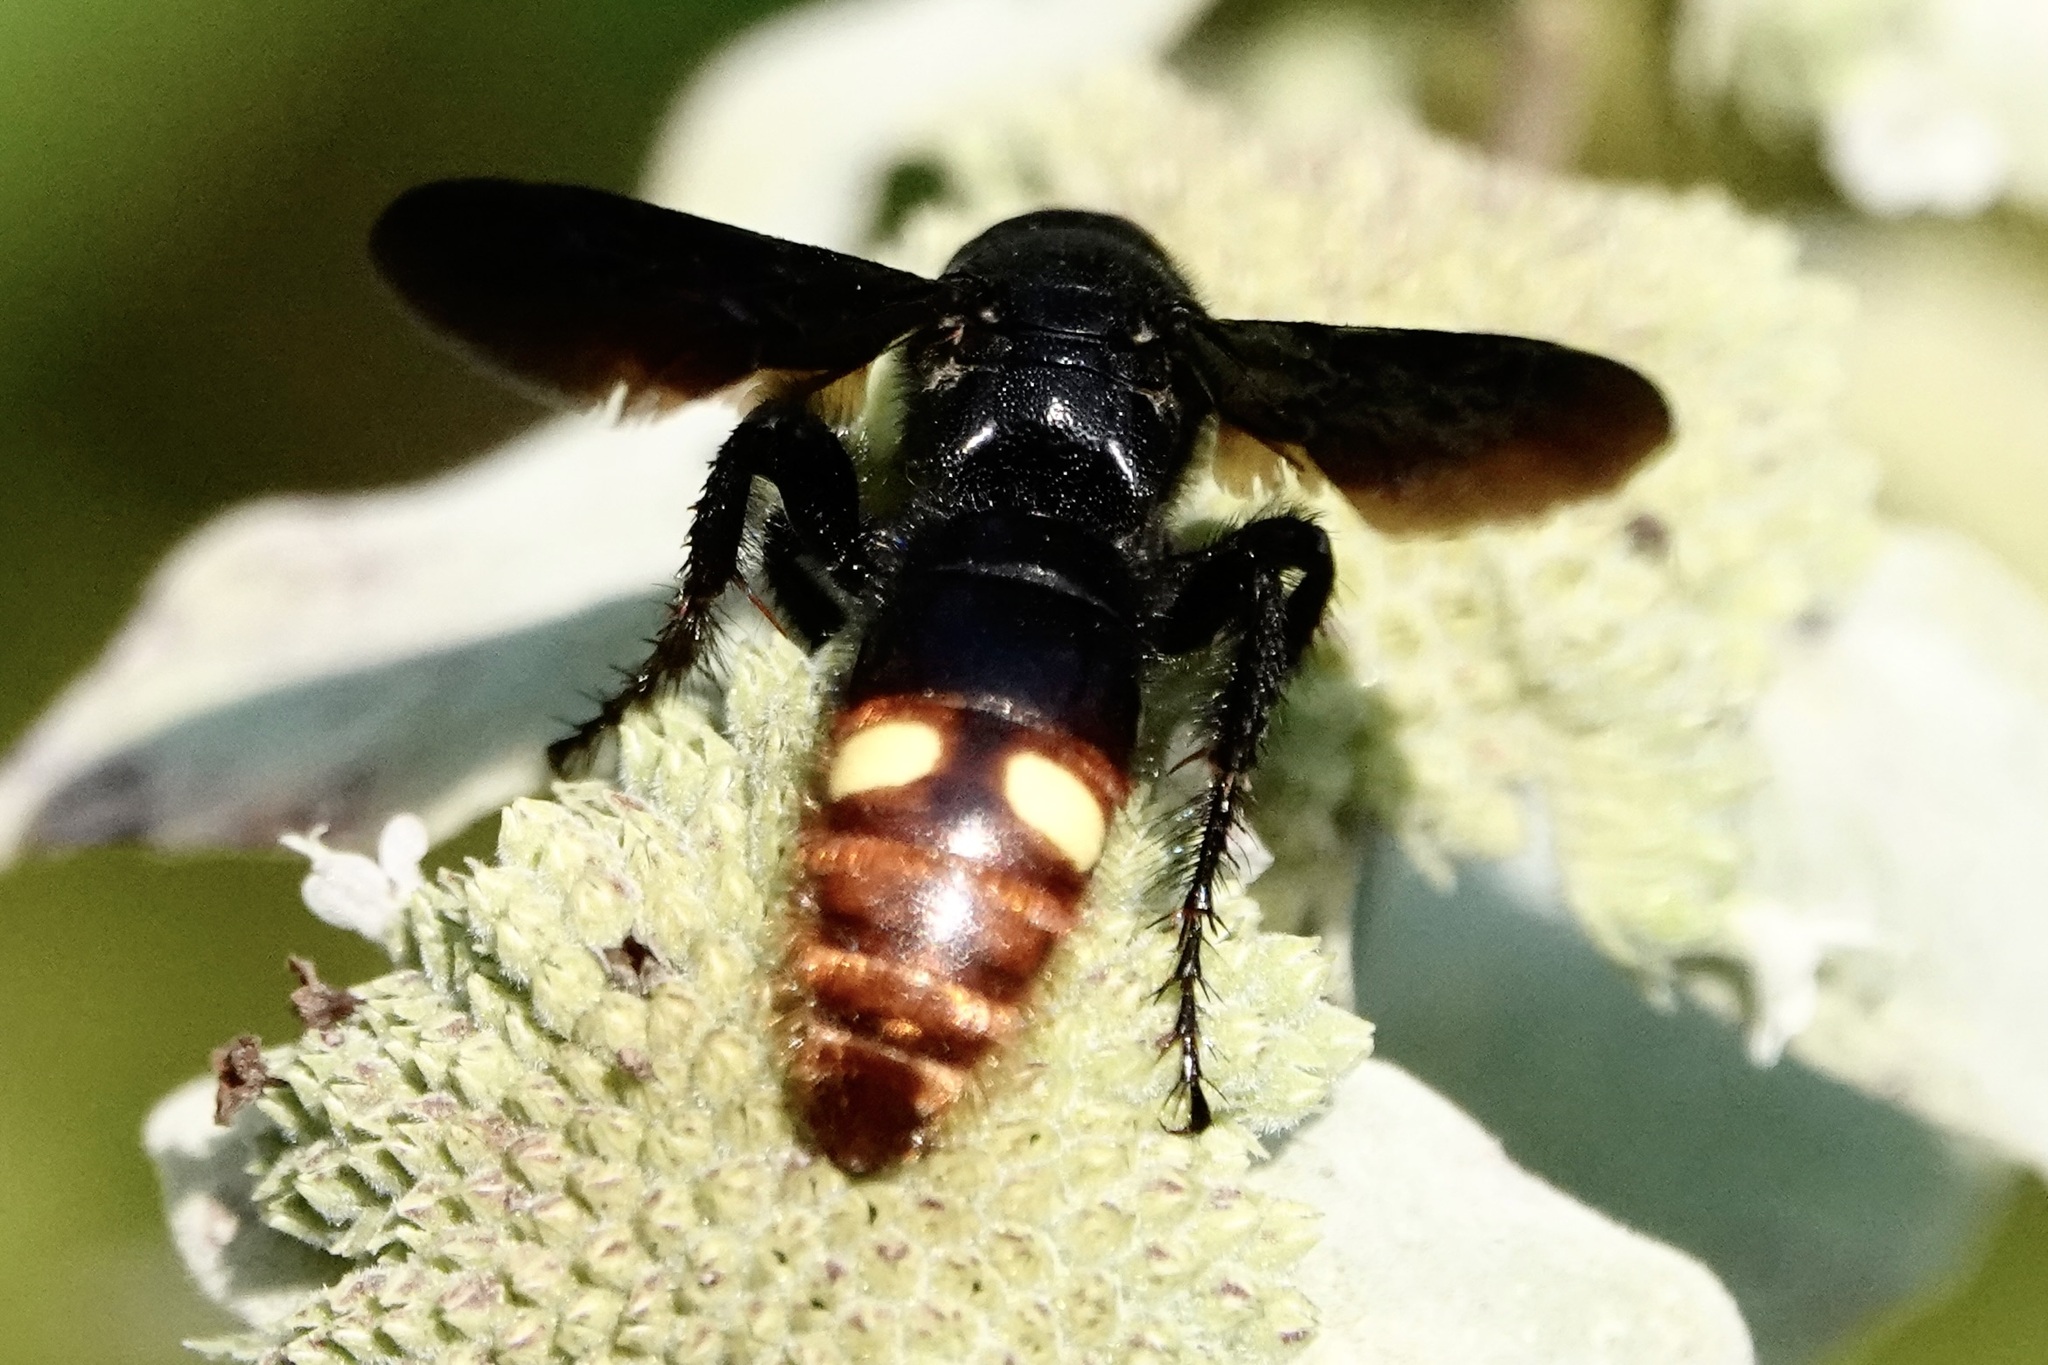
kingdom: Animalia
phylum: Arthropoda
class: Insecta
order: Hymenoptera
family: Scoliidae
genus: Scolia
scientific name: Scolia dubia
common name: Blue-winged scoliid wasp
